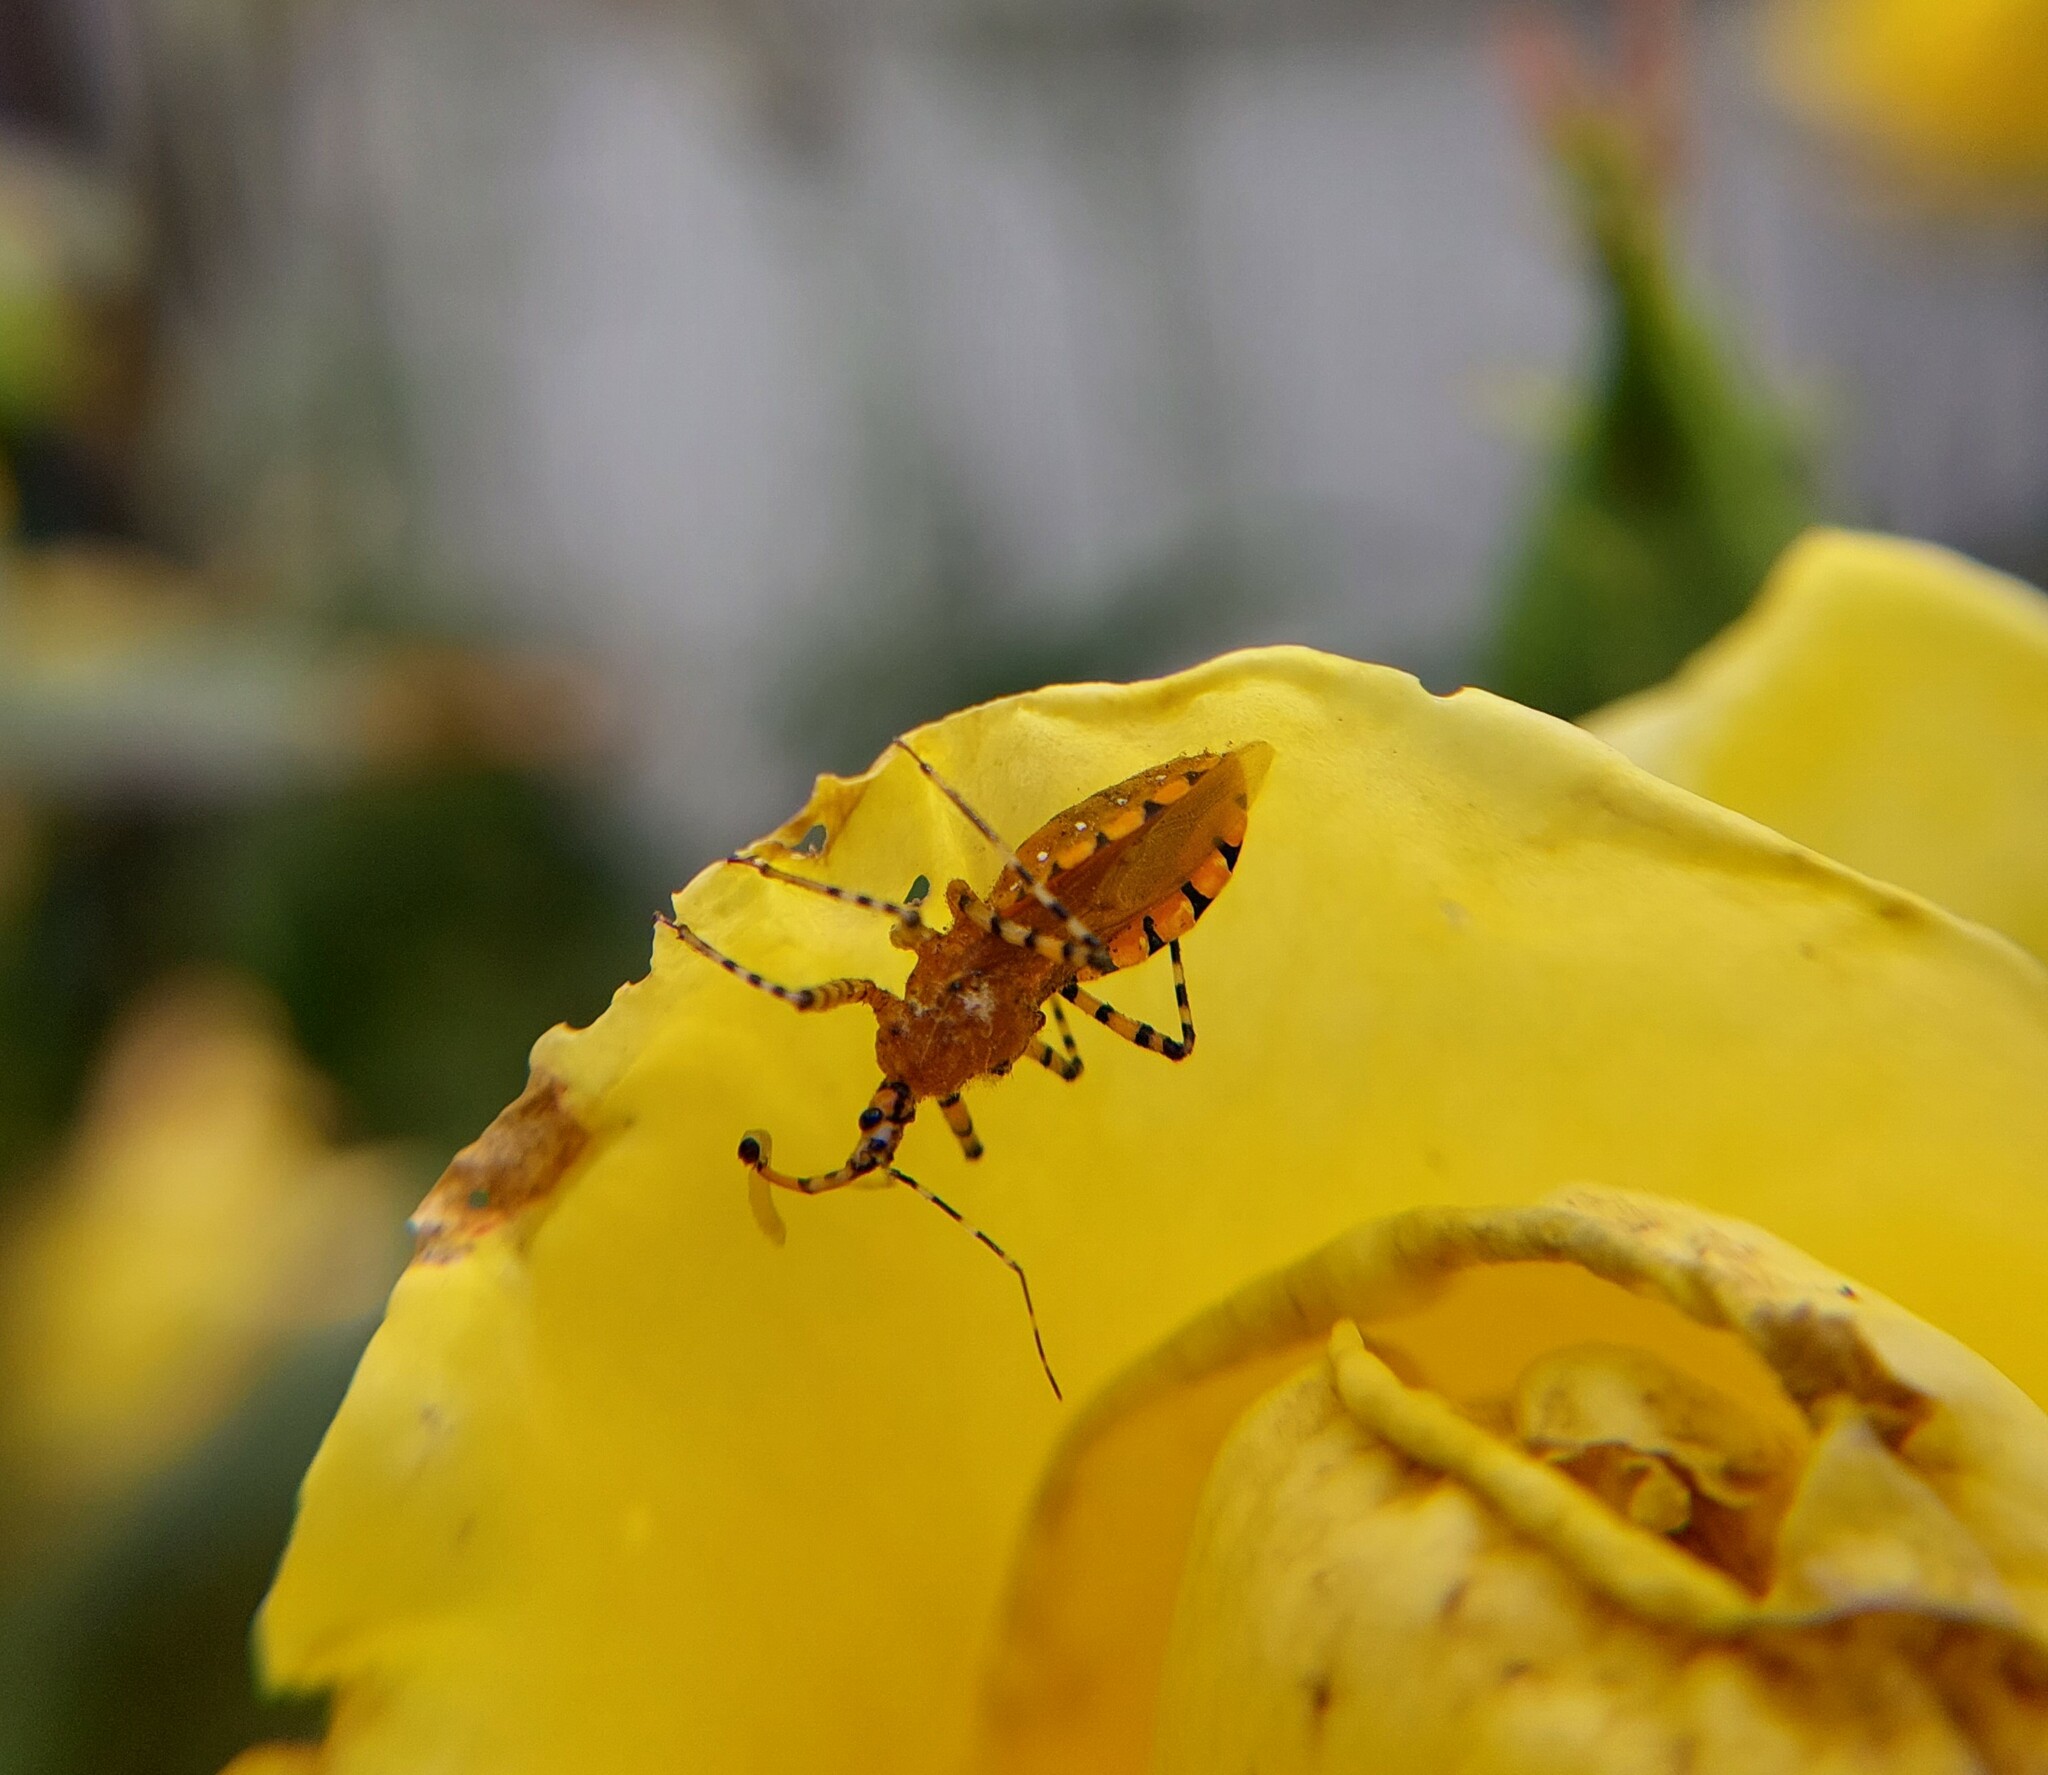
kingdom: Animalia
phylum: Arthropoda
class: Insecta
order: Hemiptera
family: Reduviidae
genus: Pselliopus
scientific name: Pselliopus barberi
